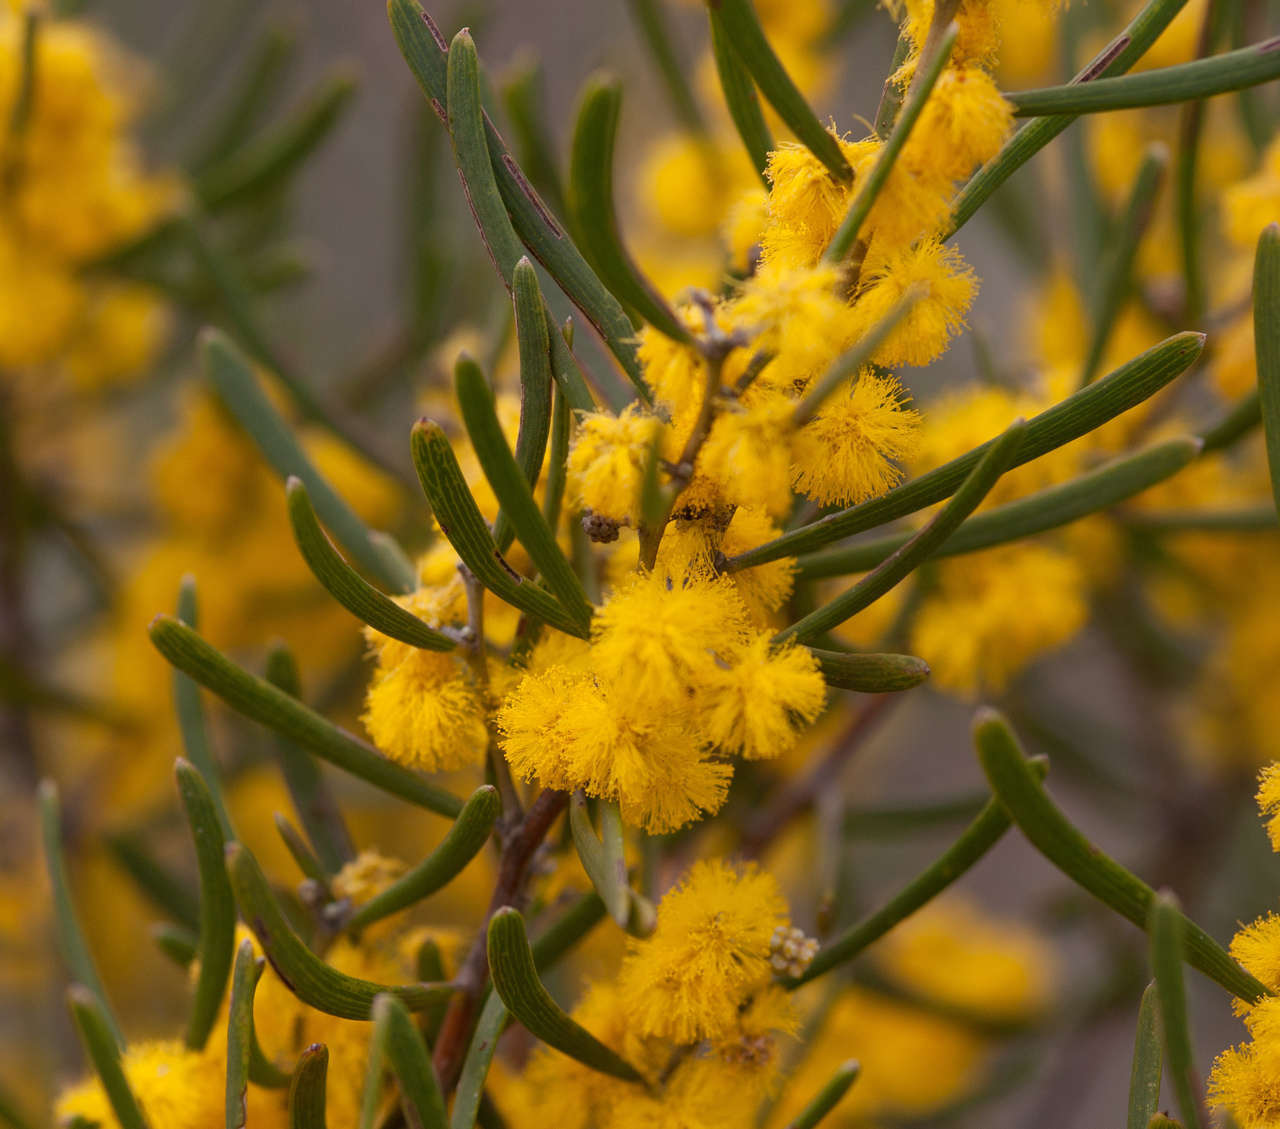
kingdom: Plantae
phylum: Tracheophyta
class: Magnoliopsida
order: Fabales
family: Fabaceae
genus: Acacia
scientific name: Acacia farinosa
